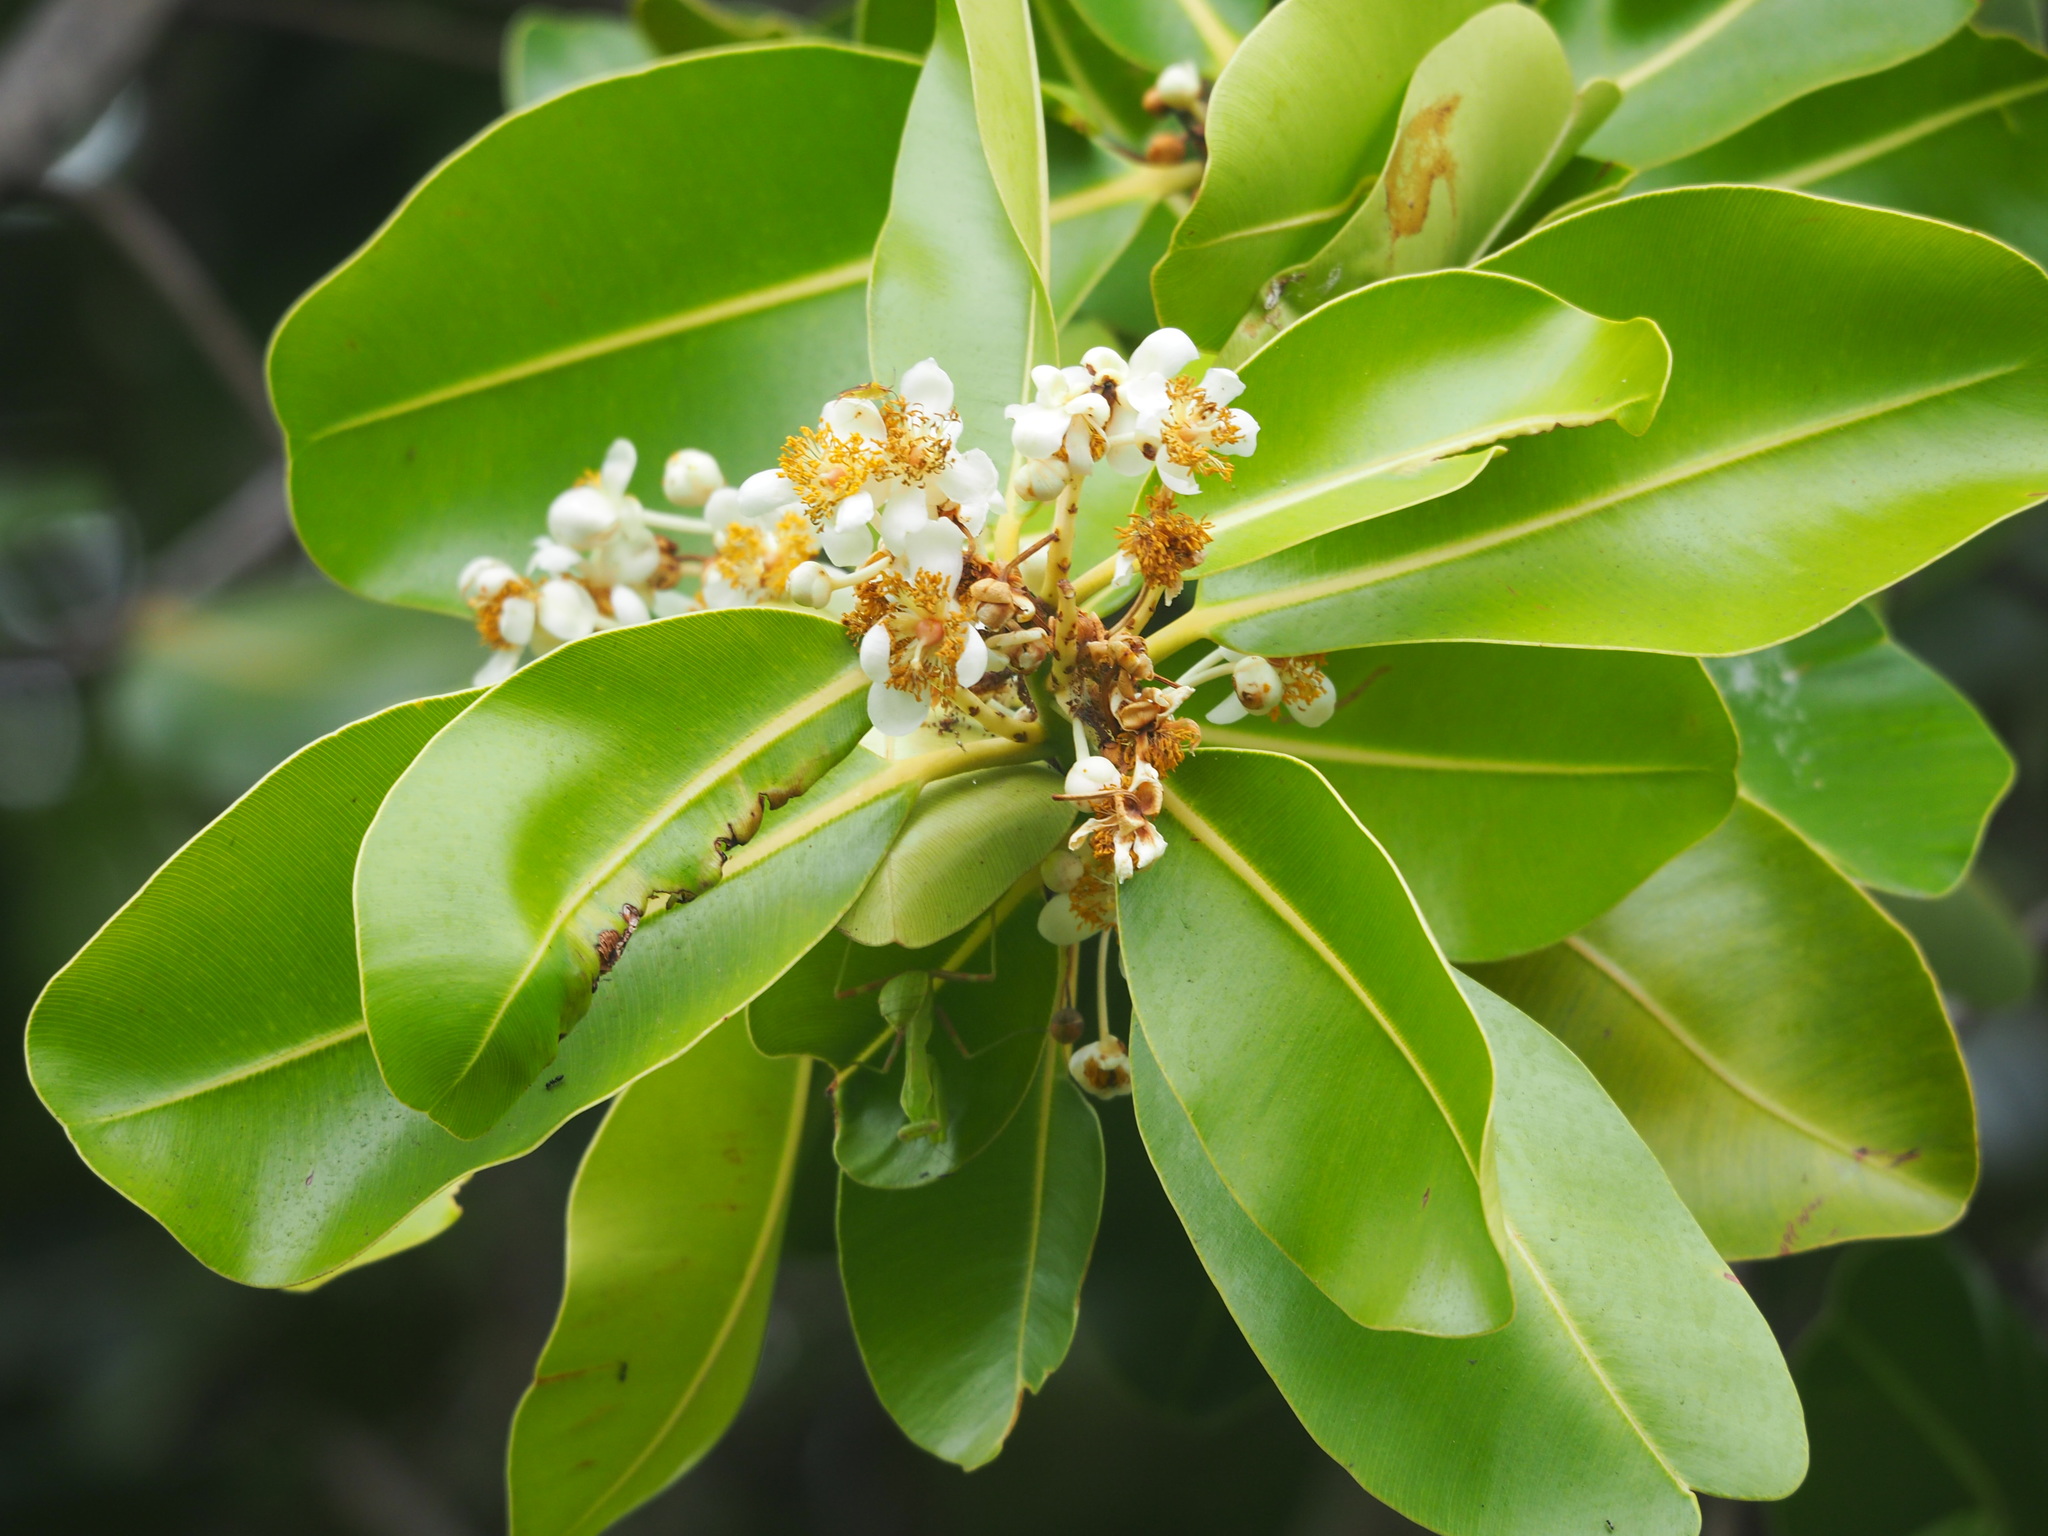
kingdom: Plantae
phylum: Tracheophyta
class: Magnoliopsida
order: Malpighiales
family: Calophyllaceae
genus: Calophyllum
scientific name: Calophyllum inophyllum
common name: Alexandrian laurel
